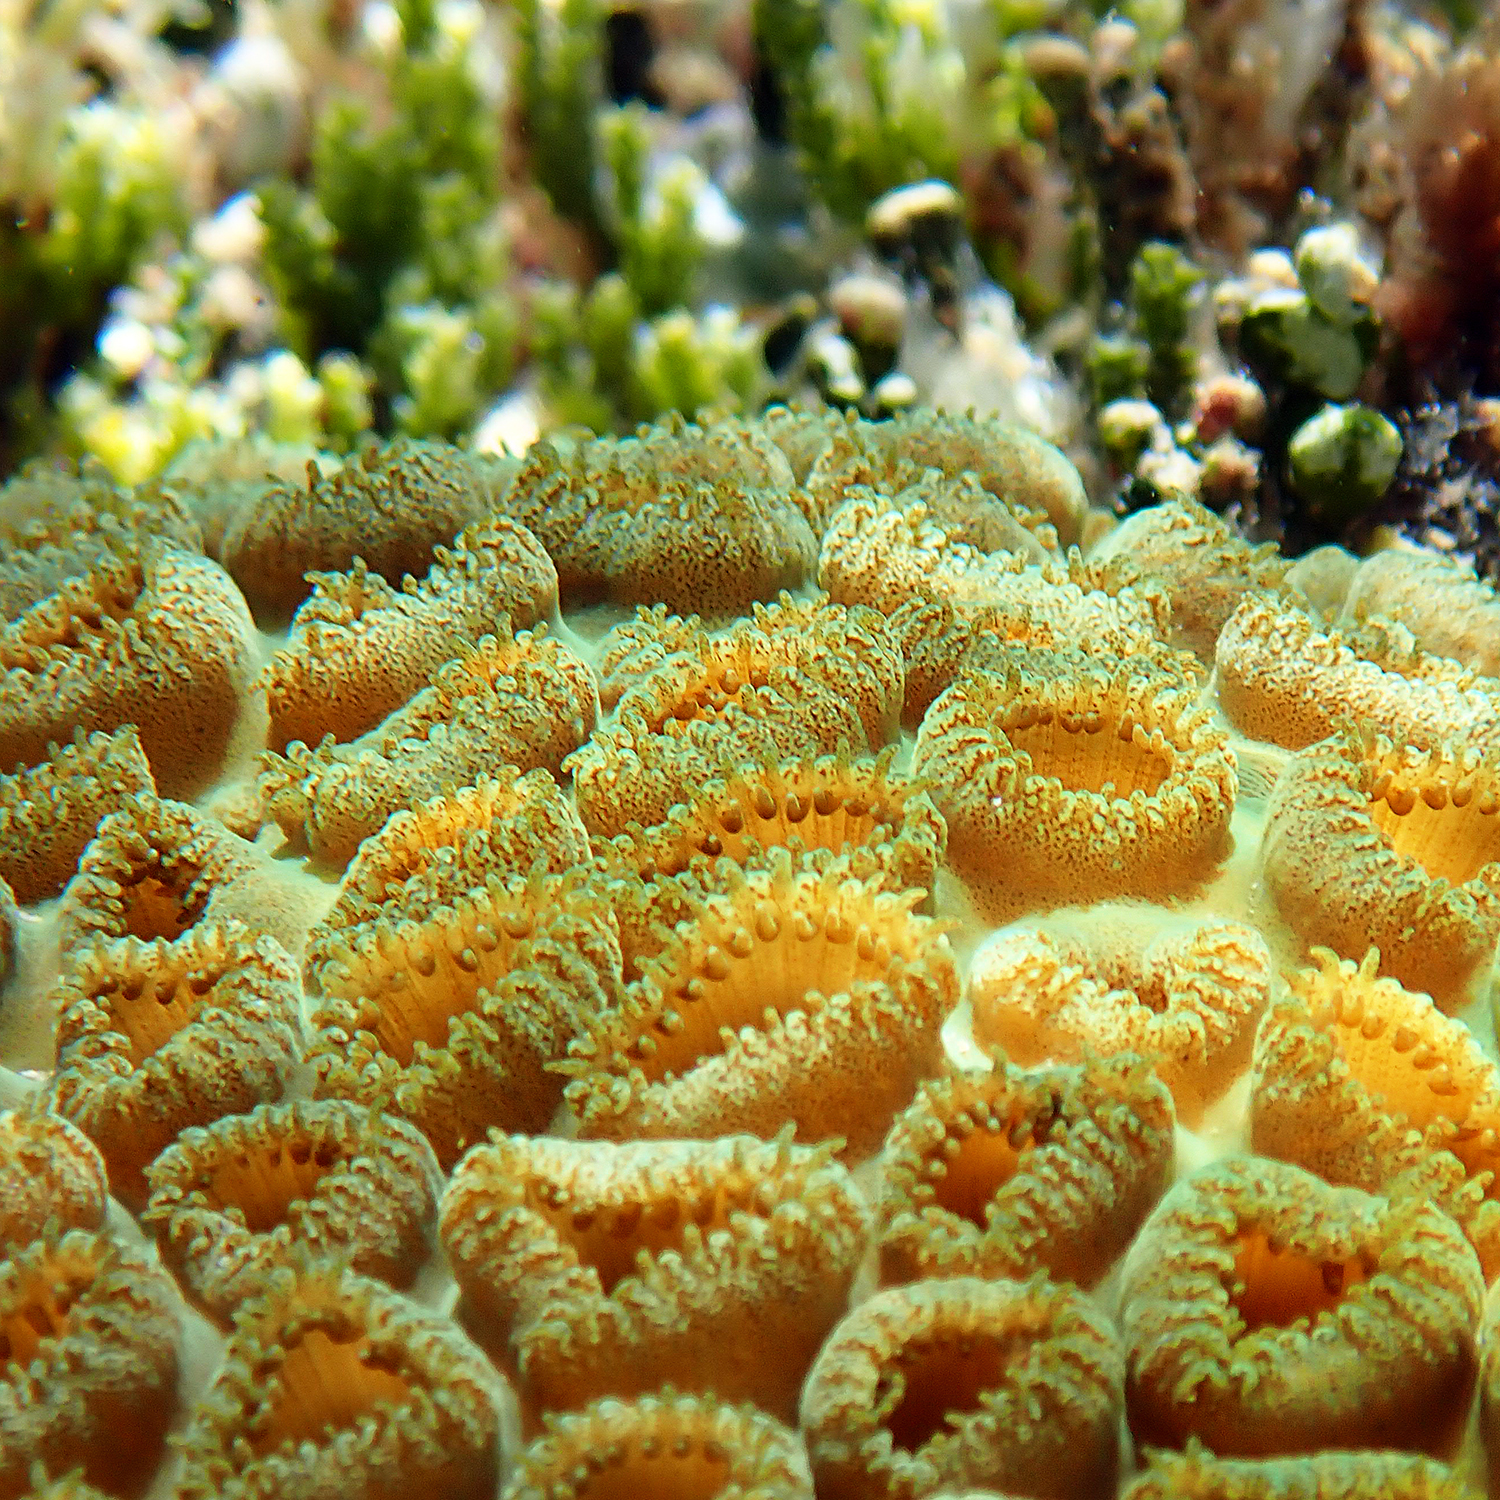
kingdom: Animalia
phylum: Cnidaria
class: Anthozoa
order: Zoantharia
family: Sphenopidae
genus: Palythoa
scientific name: Palythoa tuberculosa
